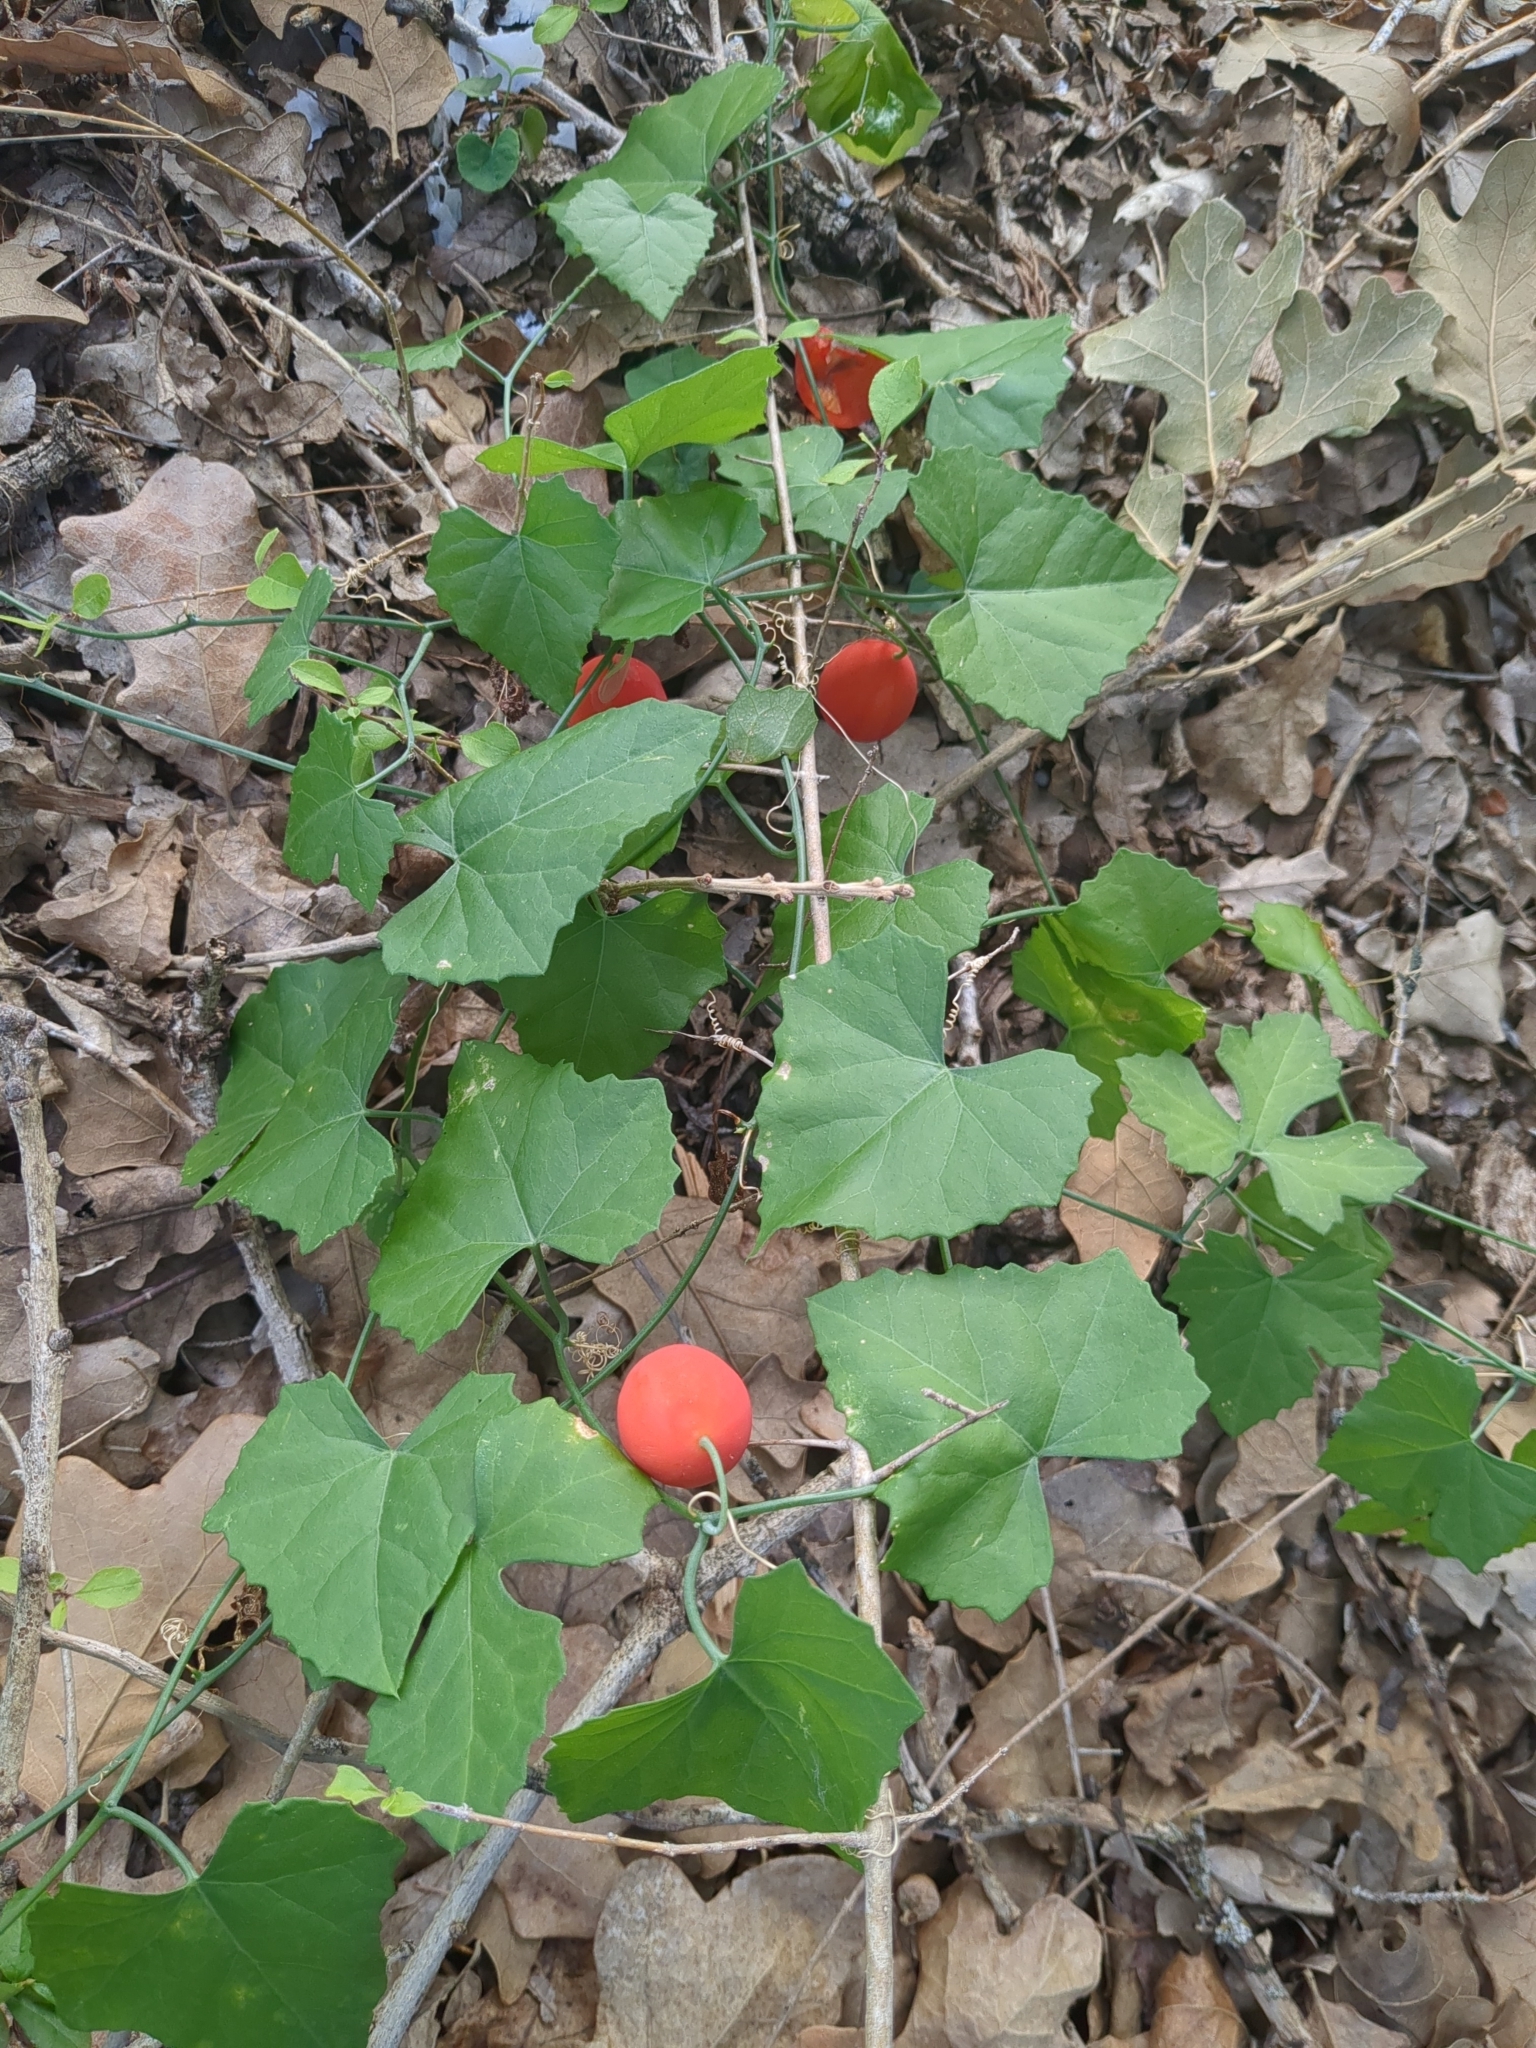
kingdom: Plantae
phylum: Tracheophyta
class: Magnoliopsida
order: Cucurbitales
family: Cucurbitaceae
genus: Ibervillea
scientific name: Ibervillea lindheimeri
